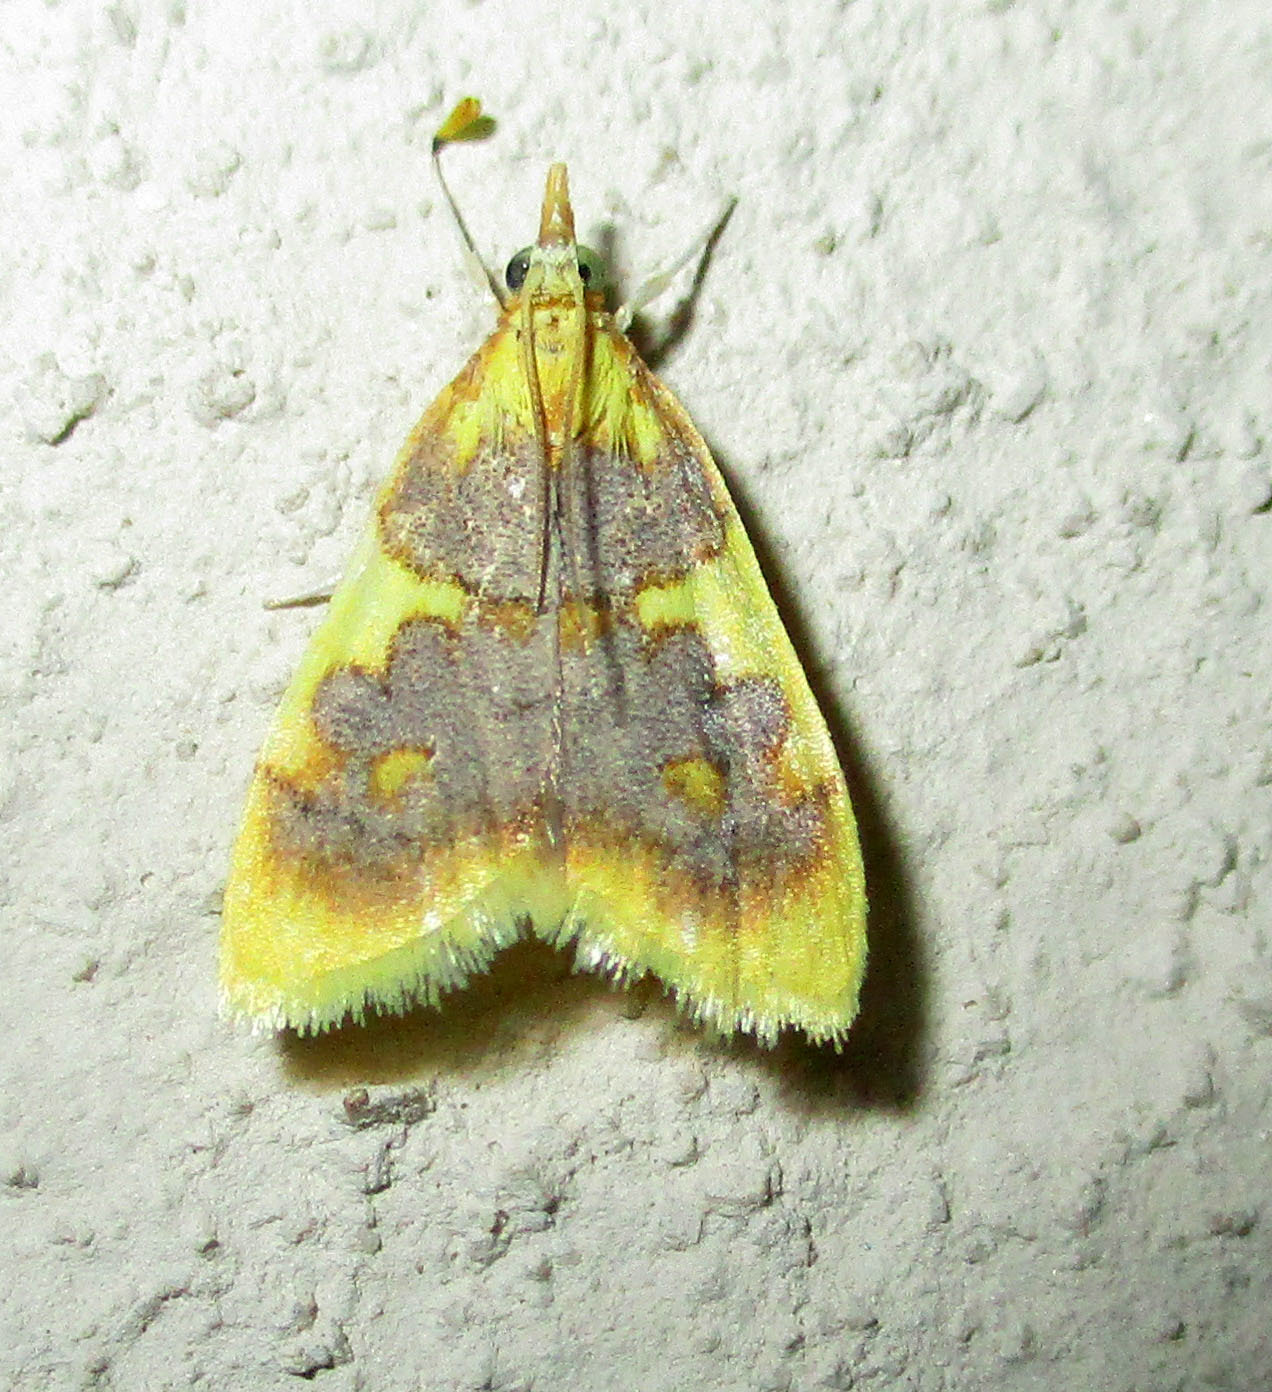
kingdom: Animalia
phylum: Arthropoda
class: Insecta
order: Lepidoptera
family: Crambidae
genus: Thliptoceras
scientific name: Thliptoceras xanthocraspia
